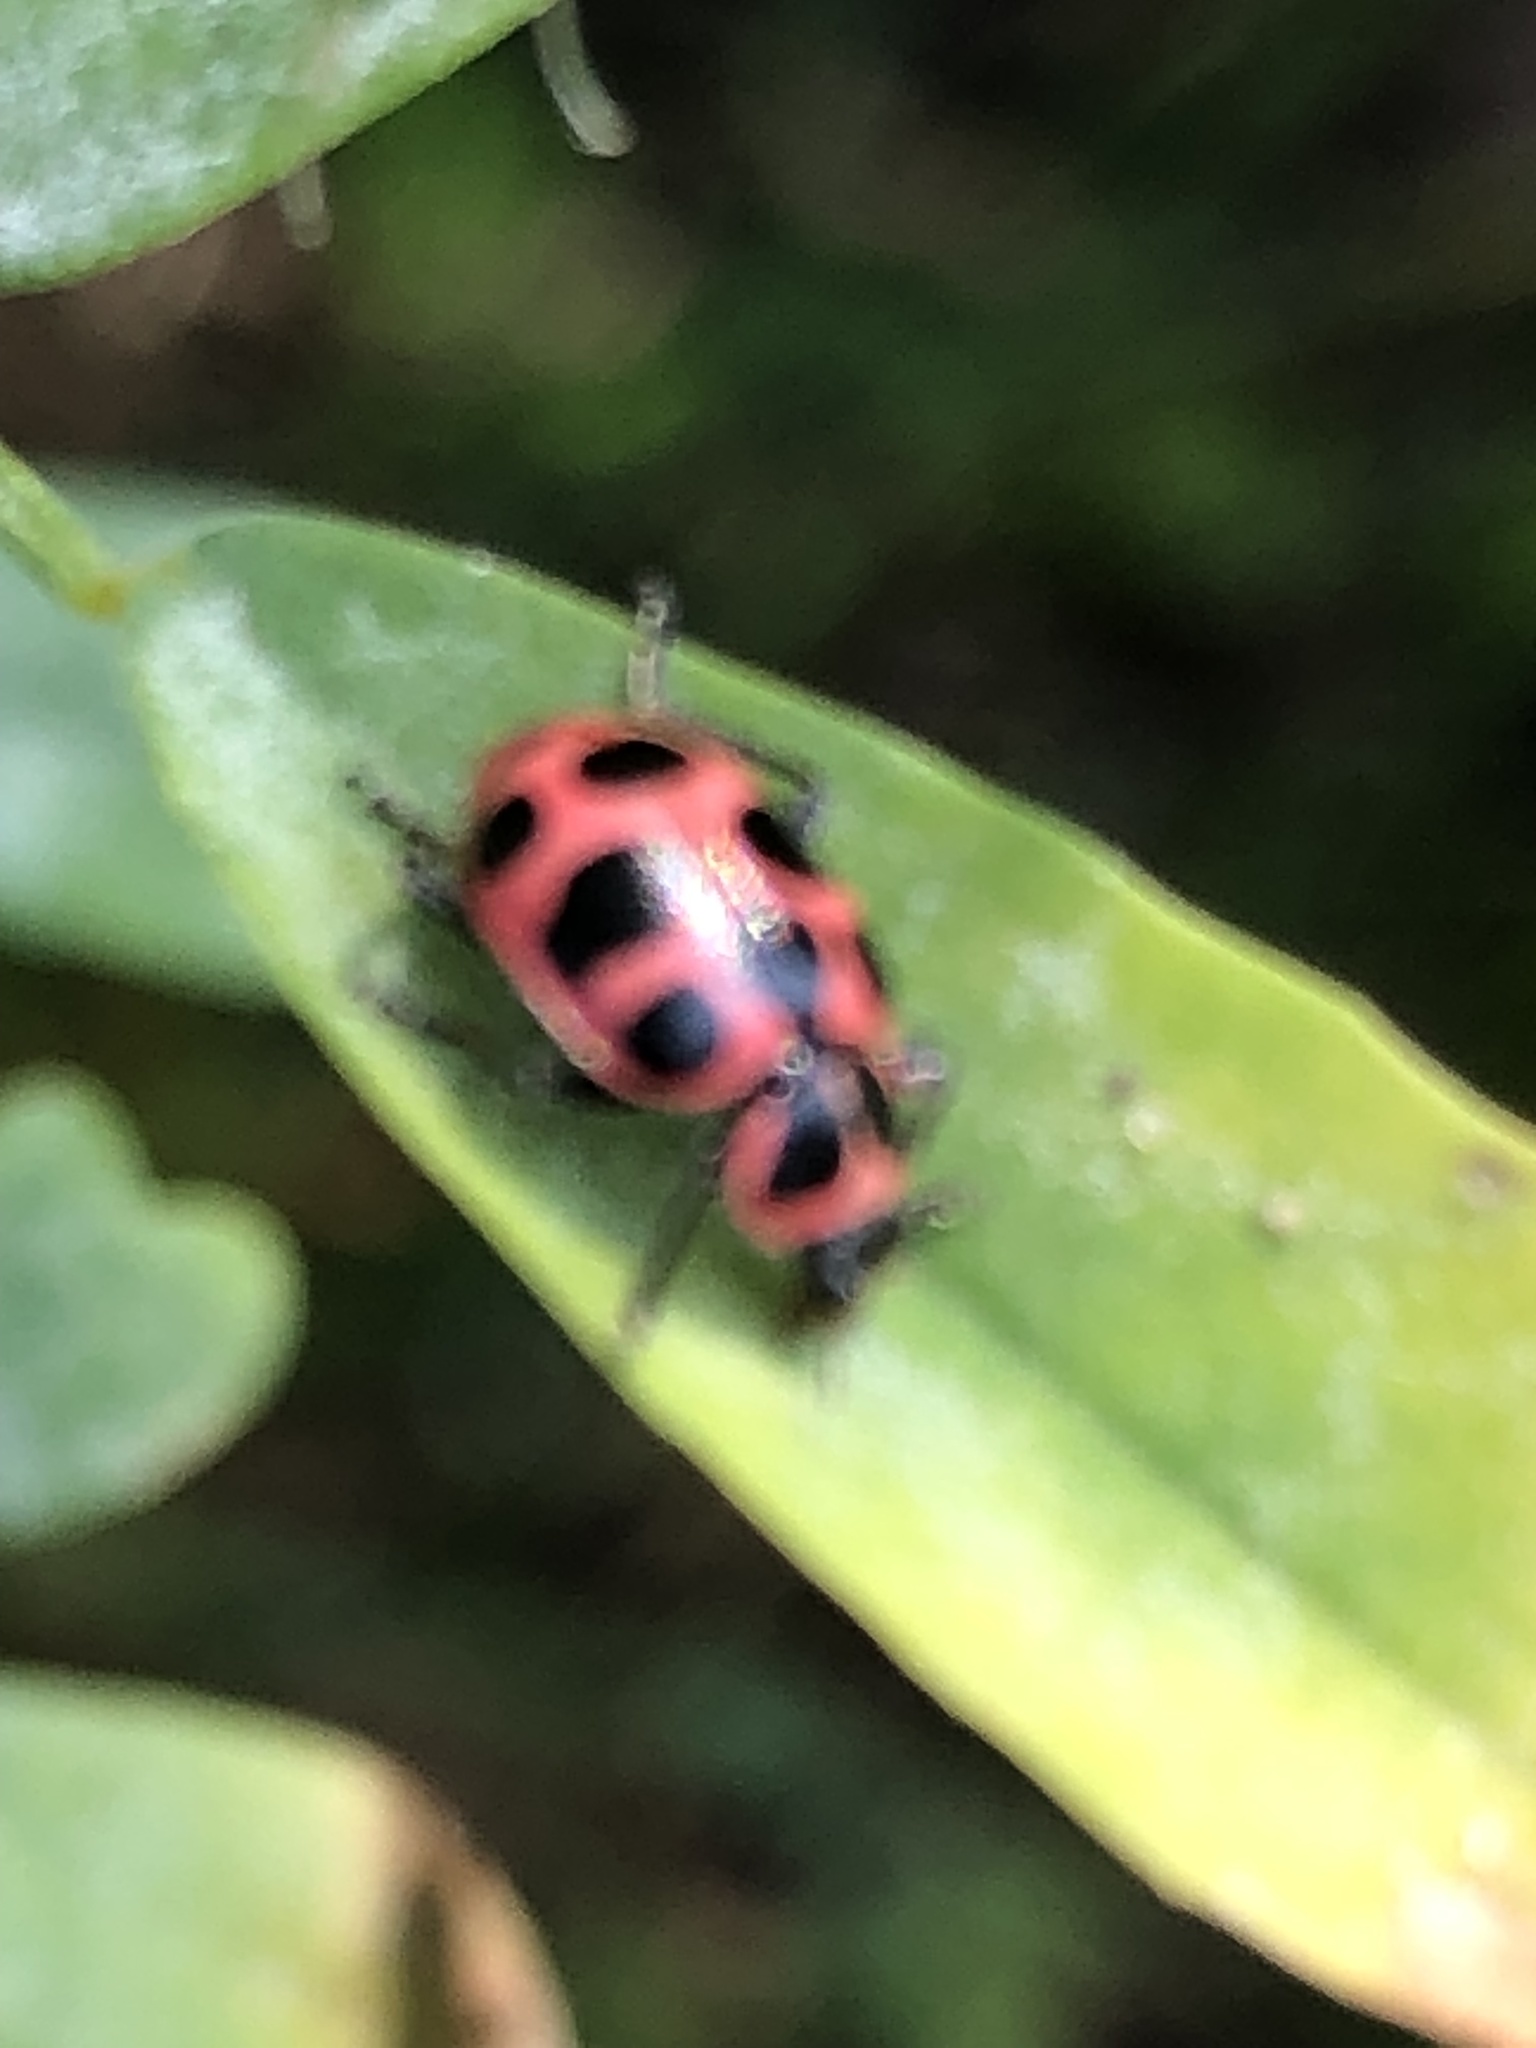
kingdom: Animalia
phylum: Arthropoda
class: Insecta
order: Coleoptera
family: Coccinellidae
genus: Coleomegilla
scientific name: Coleomegilla maculata
